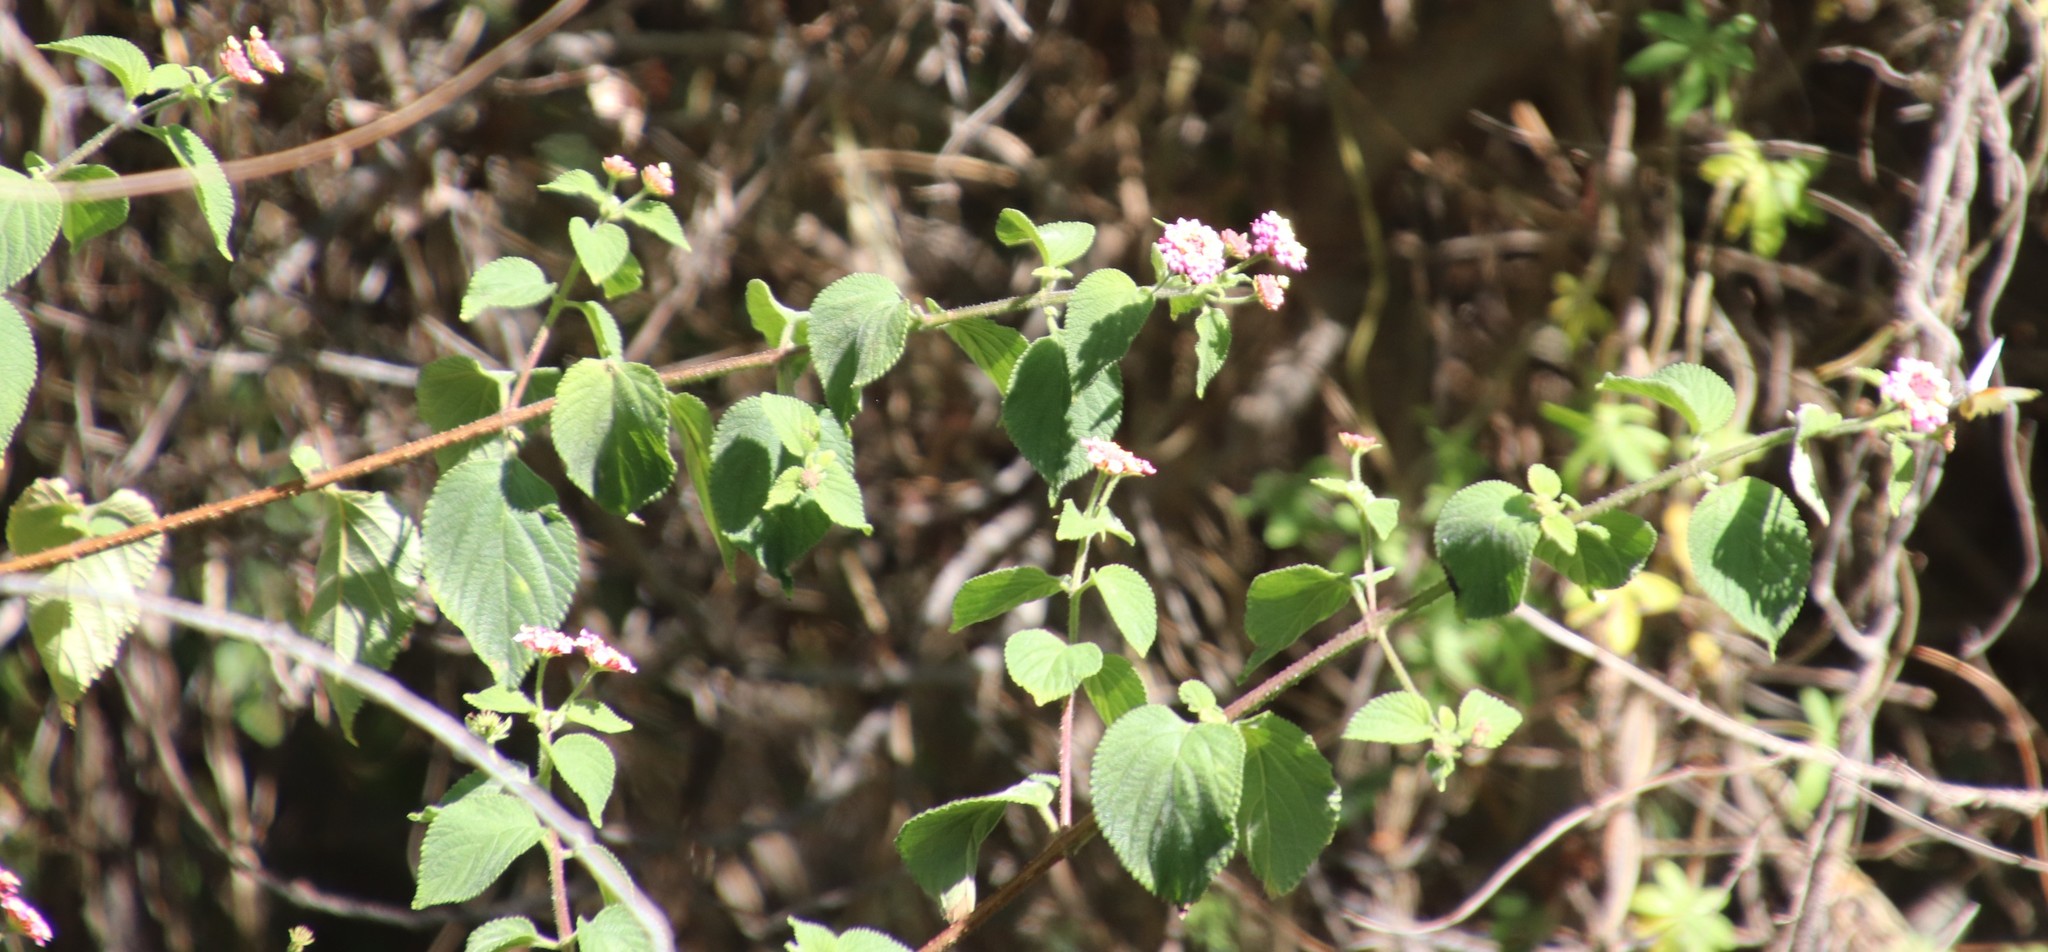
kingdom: Plantae
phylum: Tracheophyta
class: Magnoliopsida
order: Lamiales
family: Verbenaceae
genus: Lantana
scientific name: Lantana camara
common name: Lantana
